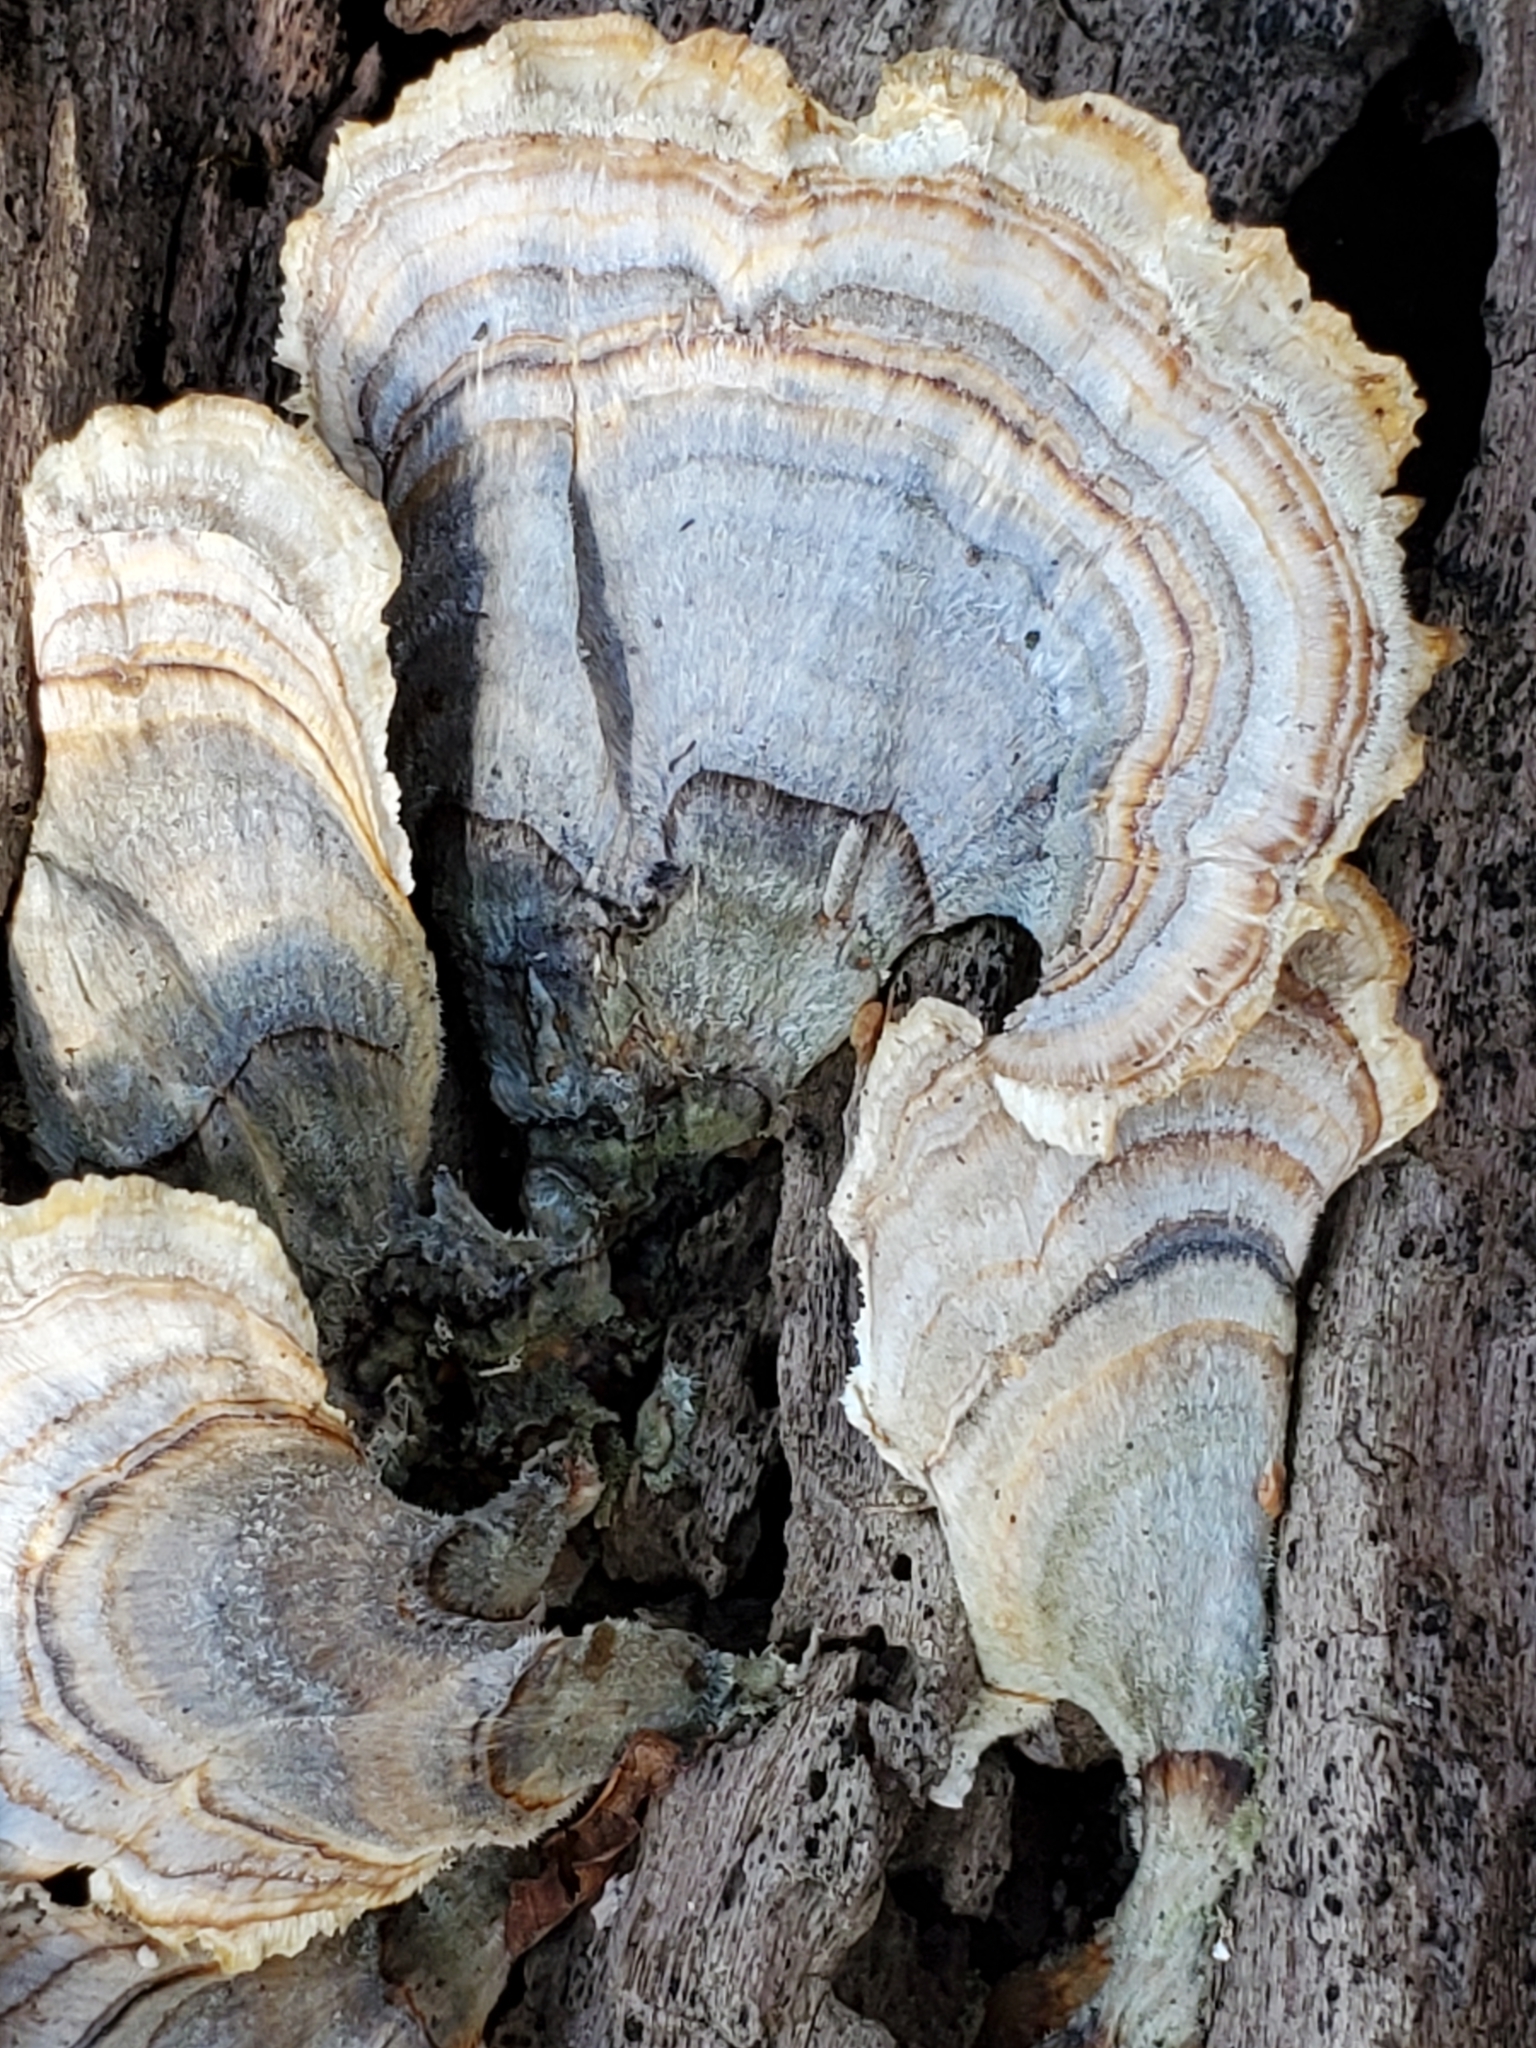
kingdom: Fungi
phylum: Basidiomycota
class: Agaricomycetes
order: Polyporales
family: Polyporaceae
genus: Trametes
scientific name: Trametes versicolor
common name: Turkeytail
